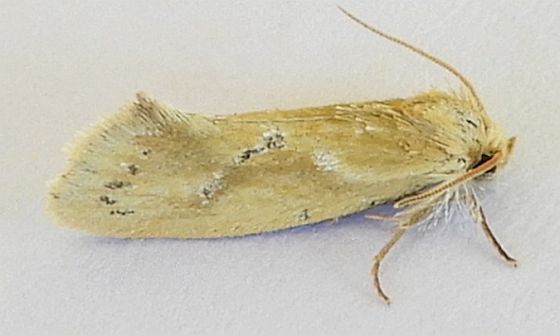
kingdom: Animalia
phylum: Arthropoda
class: Insecta
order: Lepidoptera
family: Tineidae
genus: Acrolophus
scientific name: Acrolophus laticapitana
